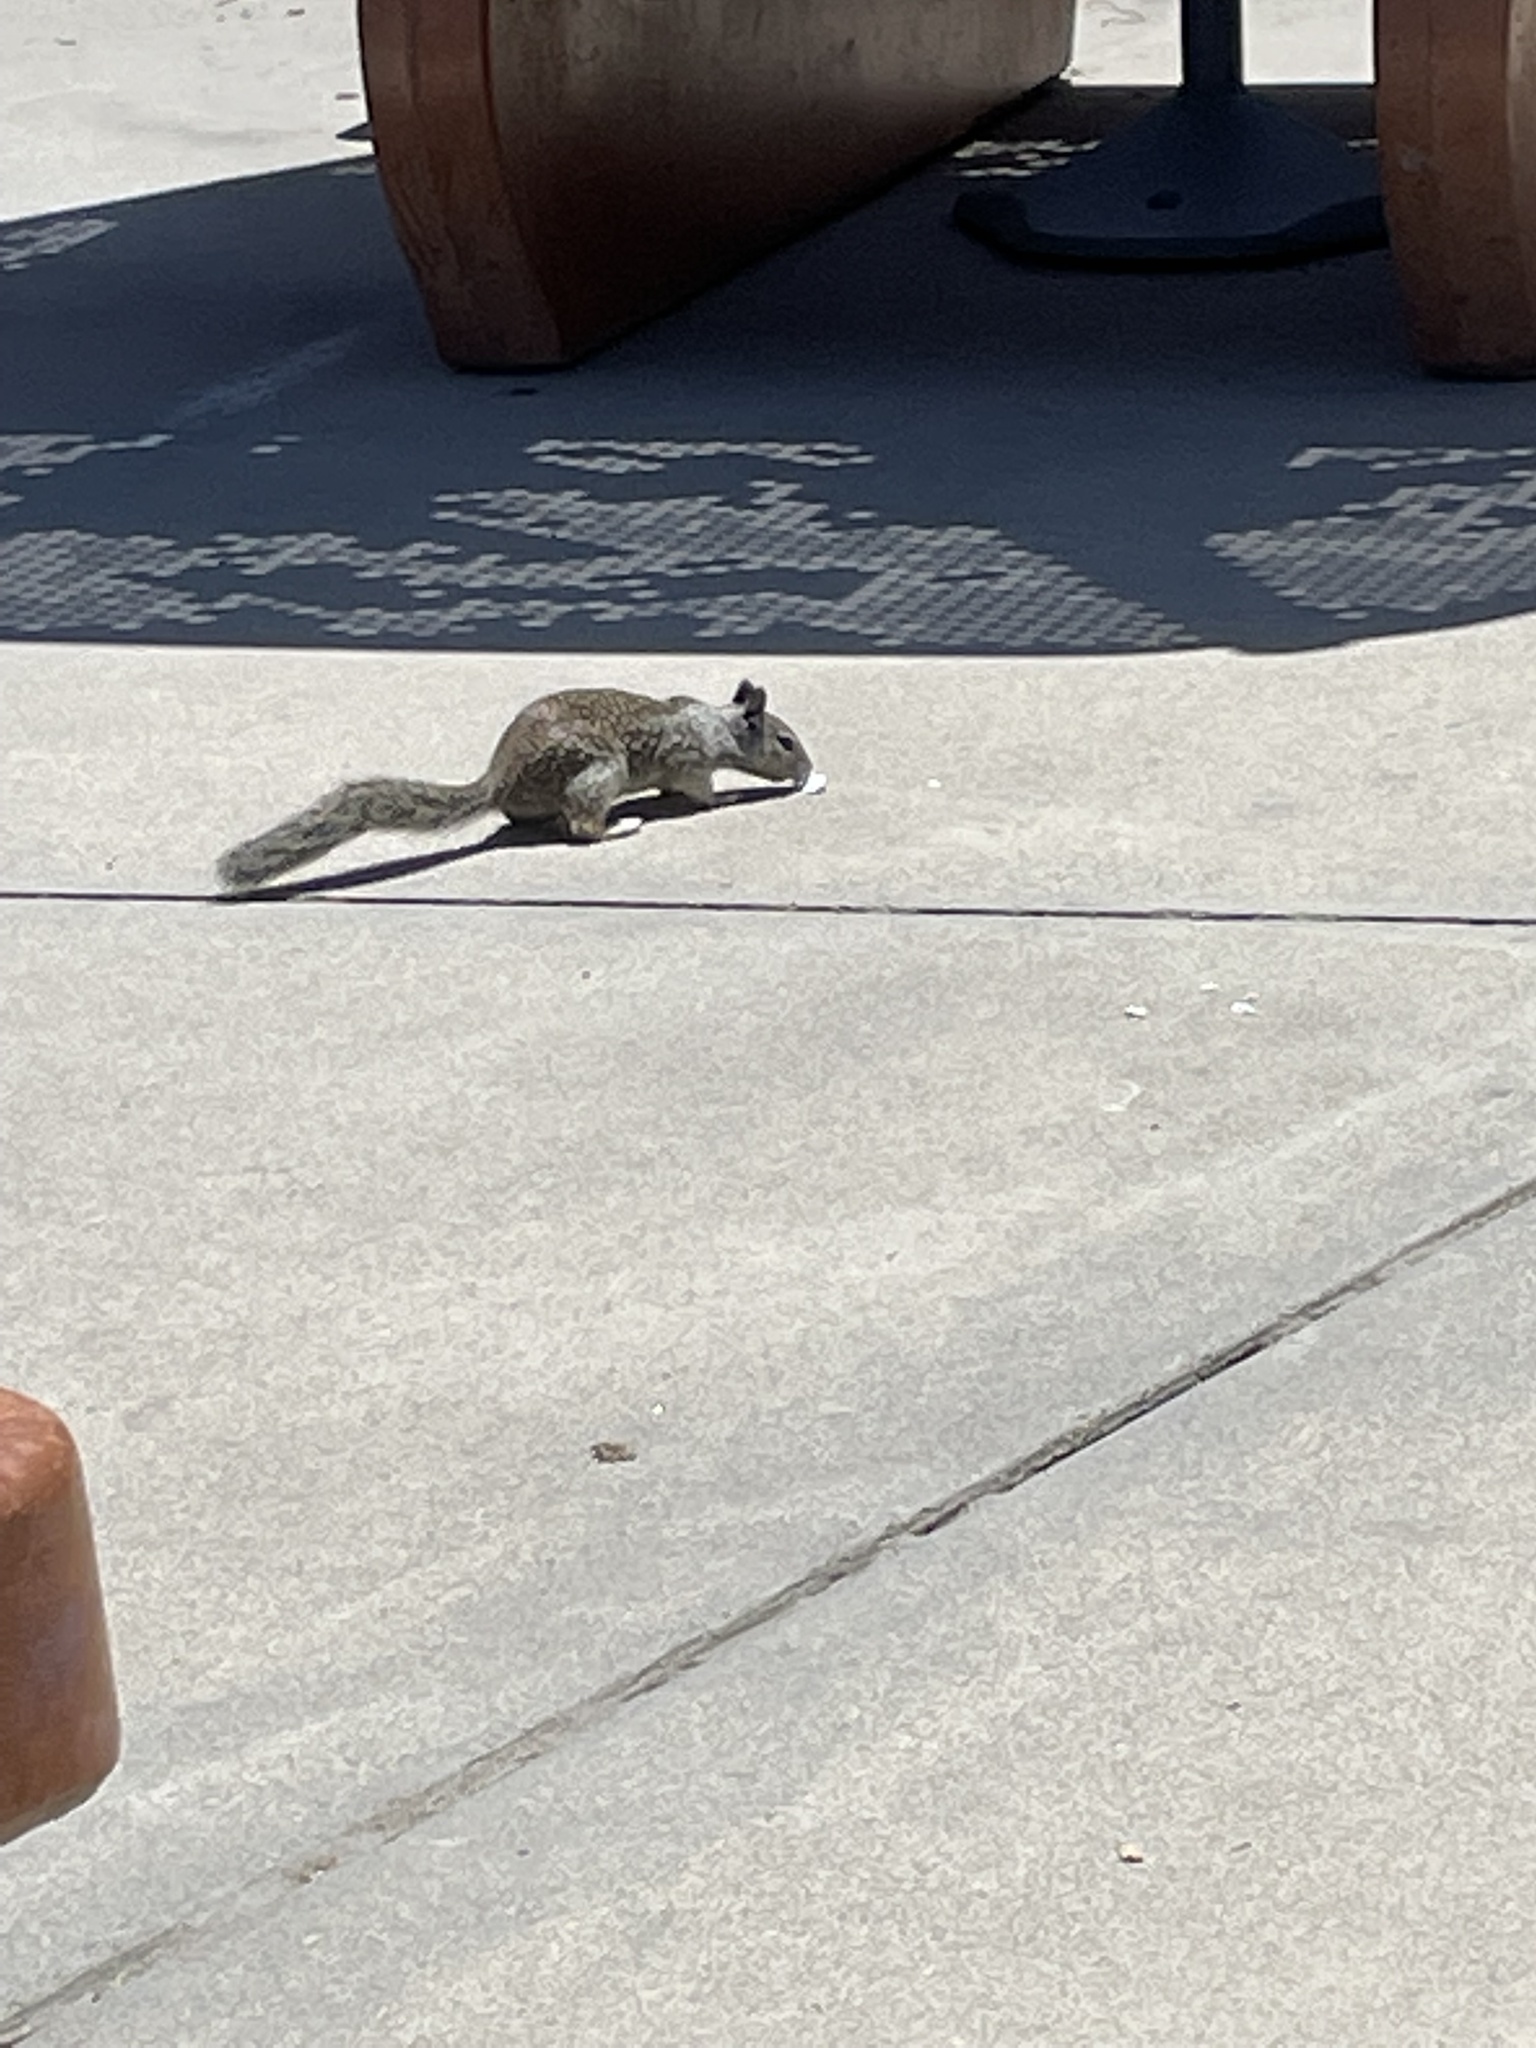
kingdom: Animalia
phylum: Chordata
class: Mammalia
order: Rodentia
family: Sciuridae
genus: Otospermophilus
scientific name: Otospermophilus beecheyi
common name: California ground squirrel
